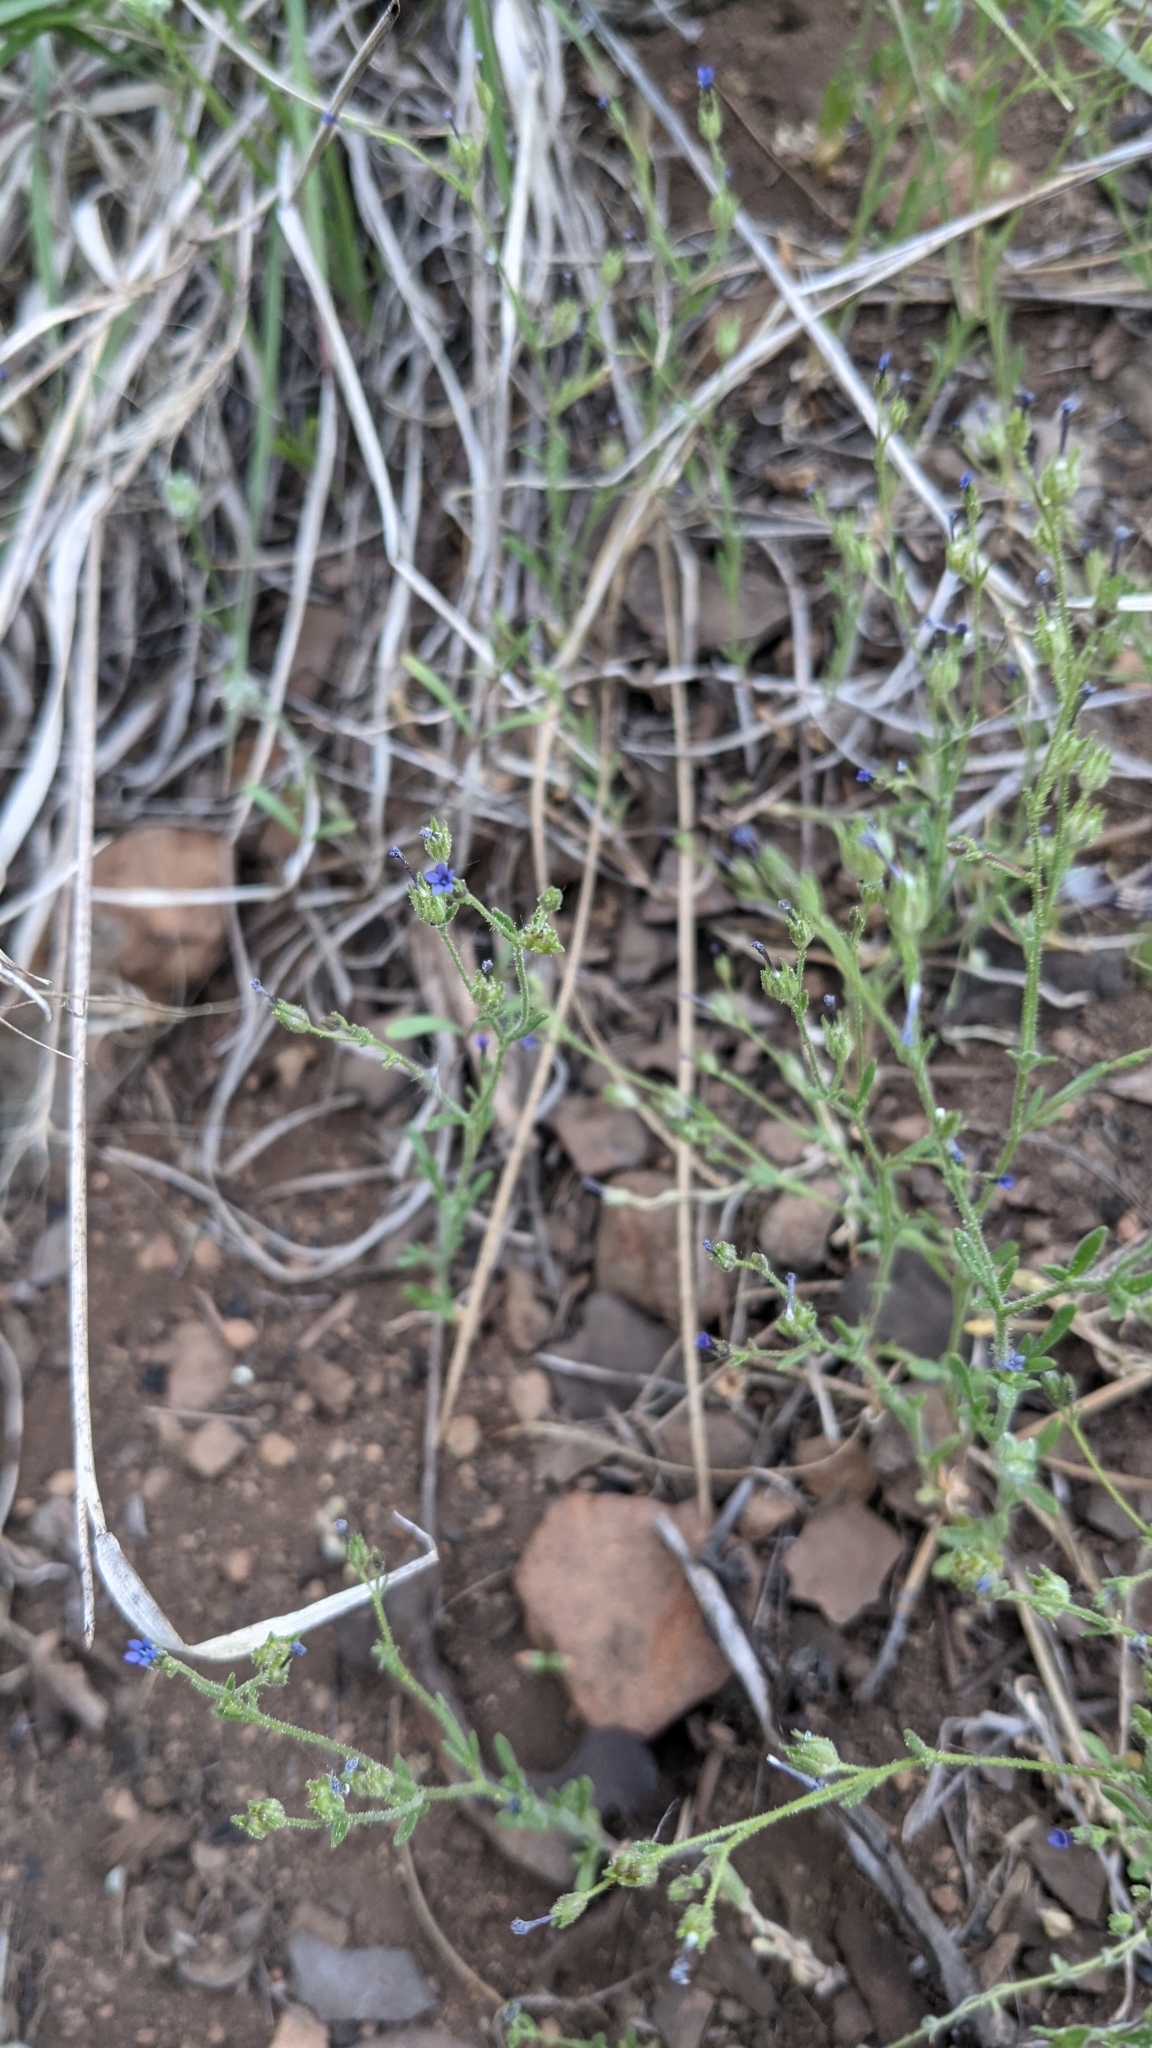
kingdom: Plantae
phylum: Tracheophyta
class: Magnoliopsida
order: Ericales
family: Polemoniaceae
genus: Allophyllum
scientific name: Allophyllum gilioides
